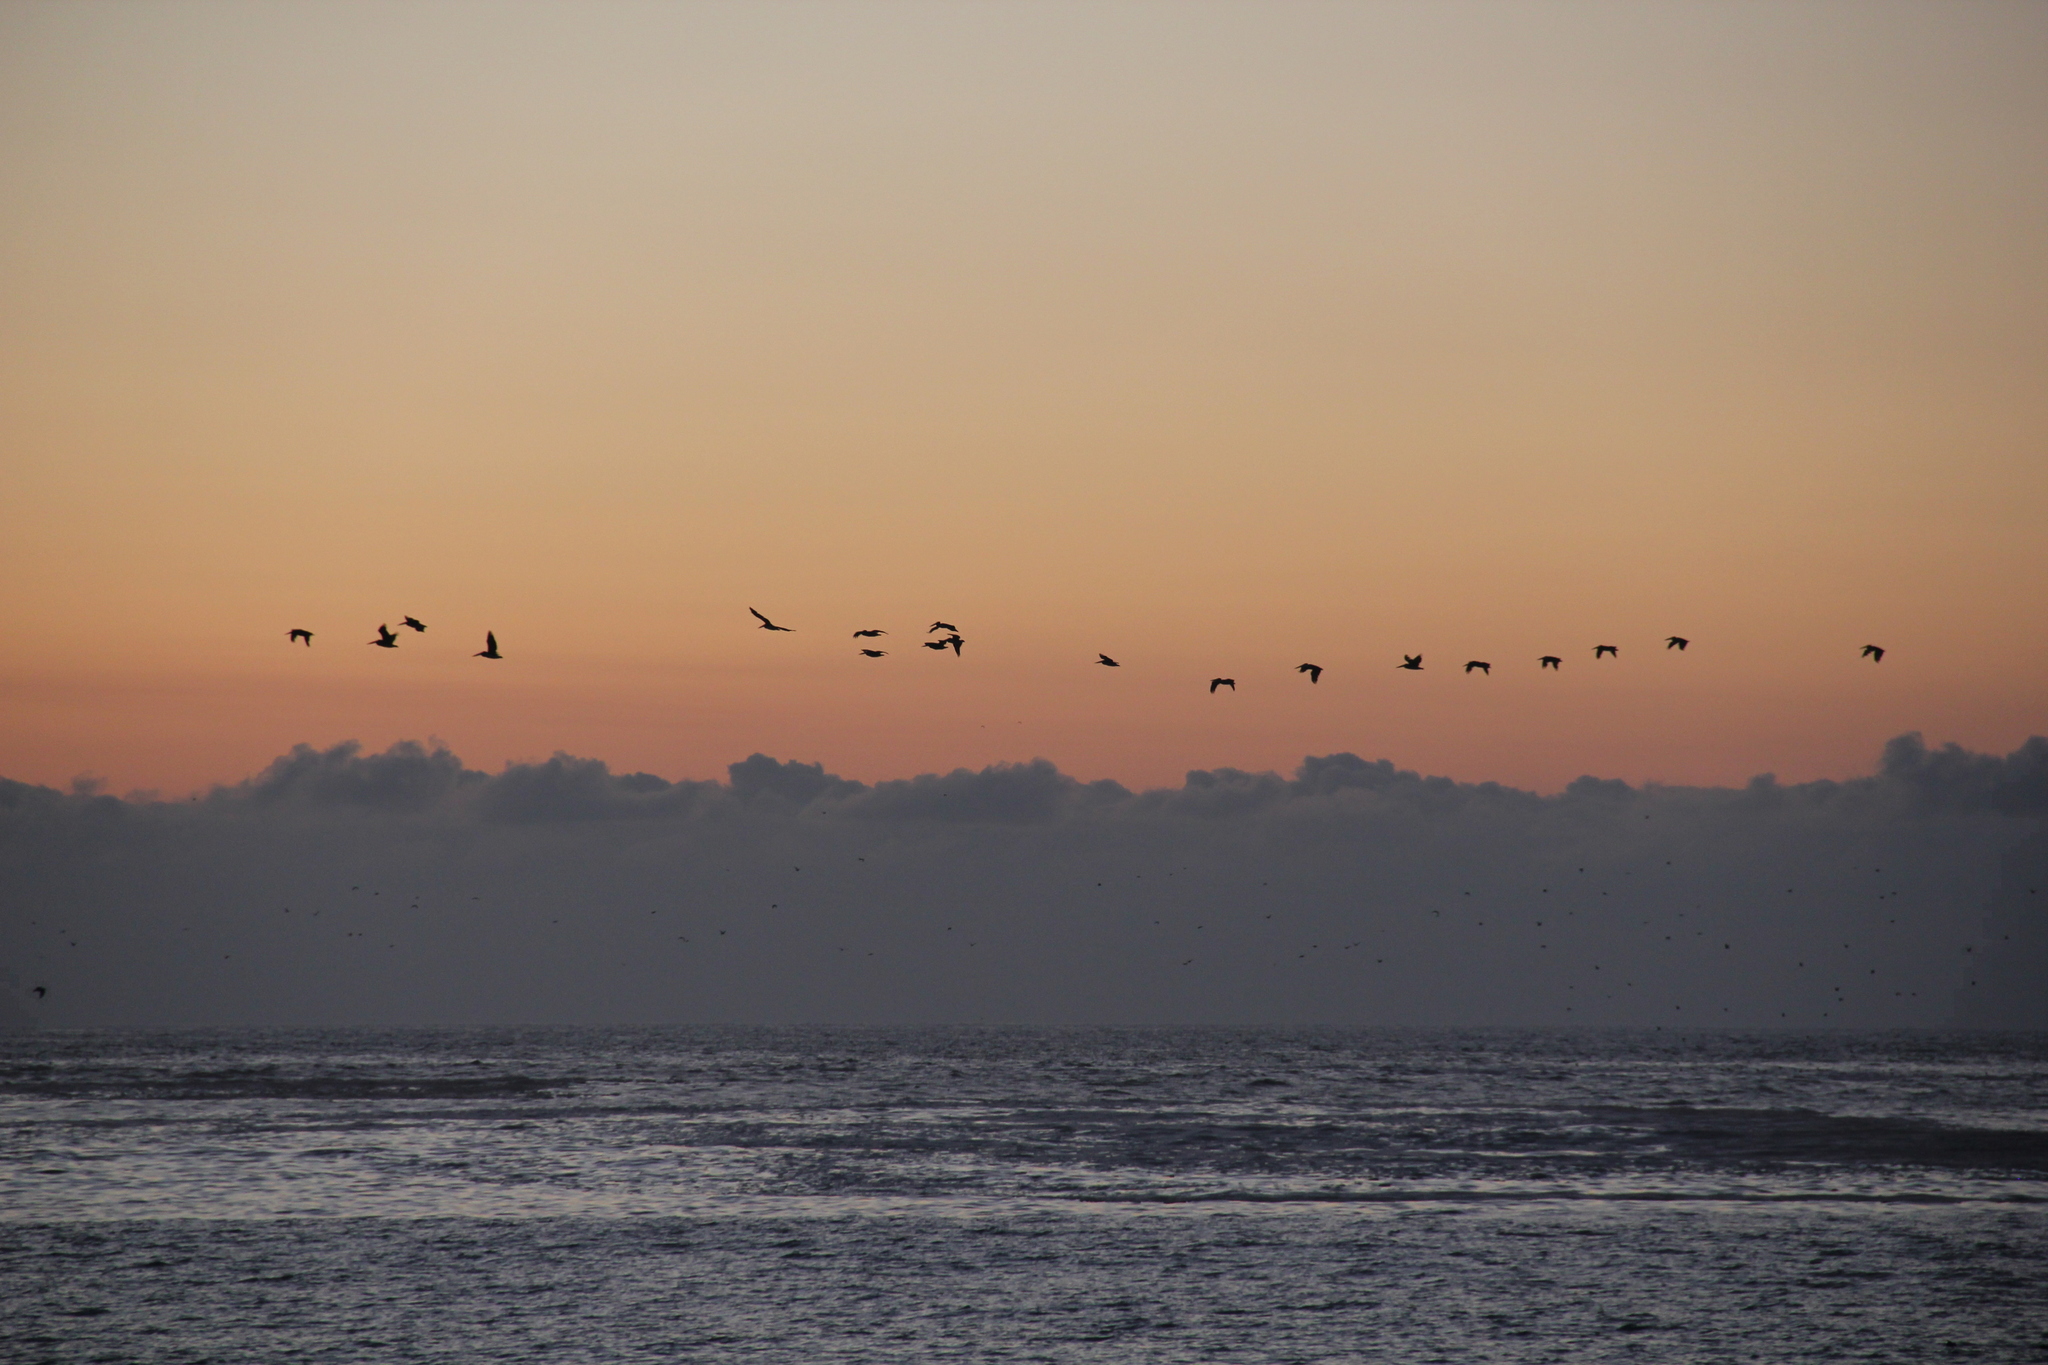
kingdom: Animalia
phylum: Chordata
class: Aves
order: Pelecaniformes
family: Pelecanidae
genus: Pelecanus
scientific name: Pelecanus thagus
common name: Peruvian pelican
